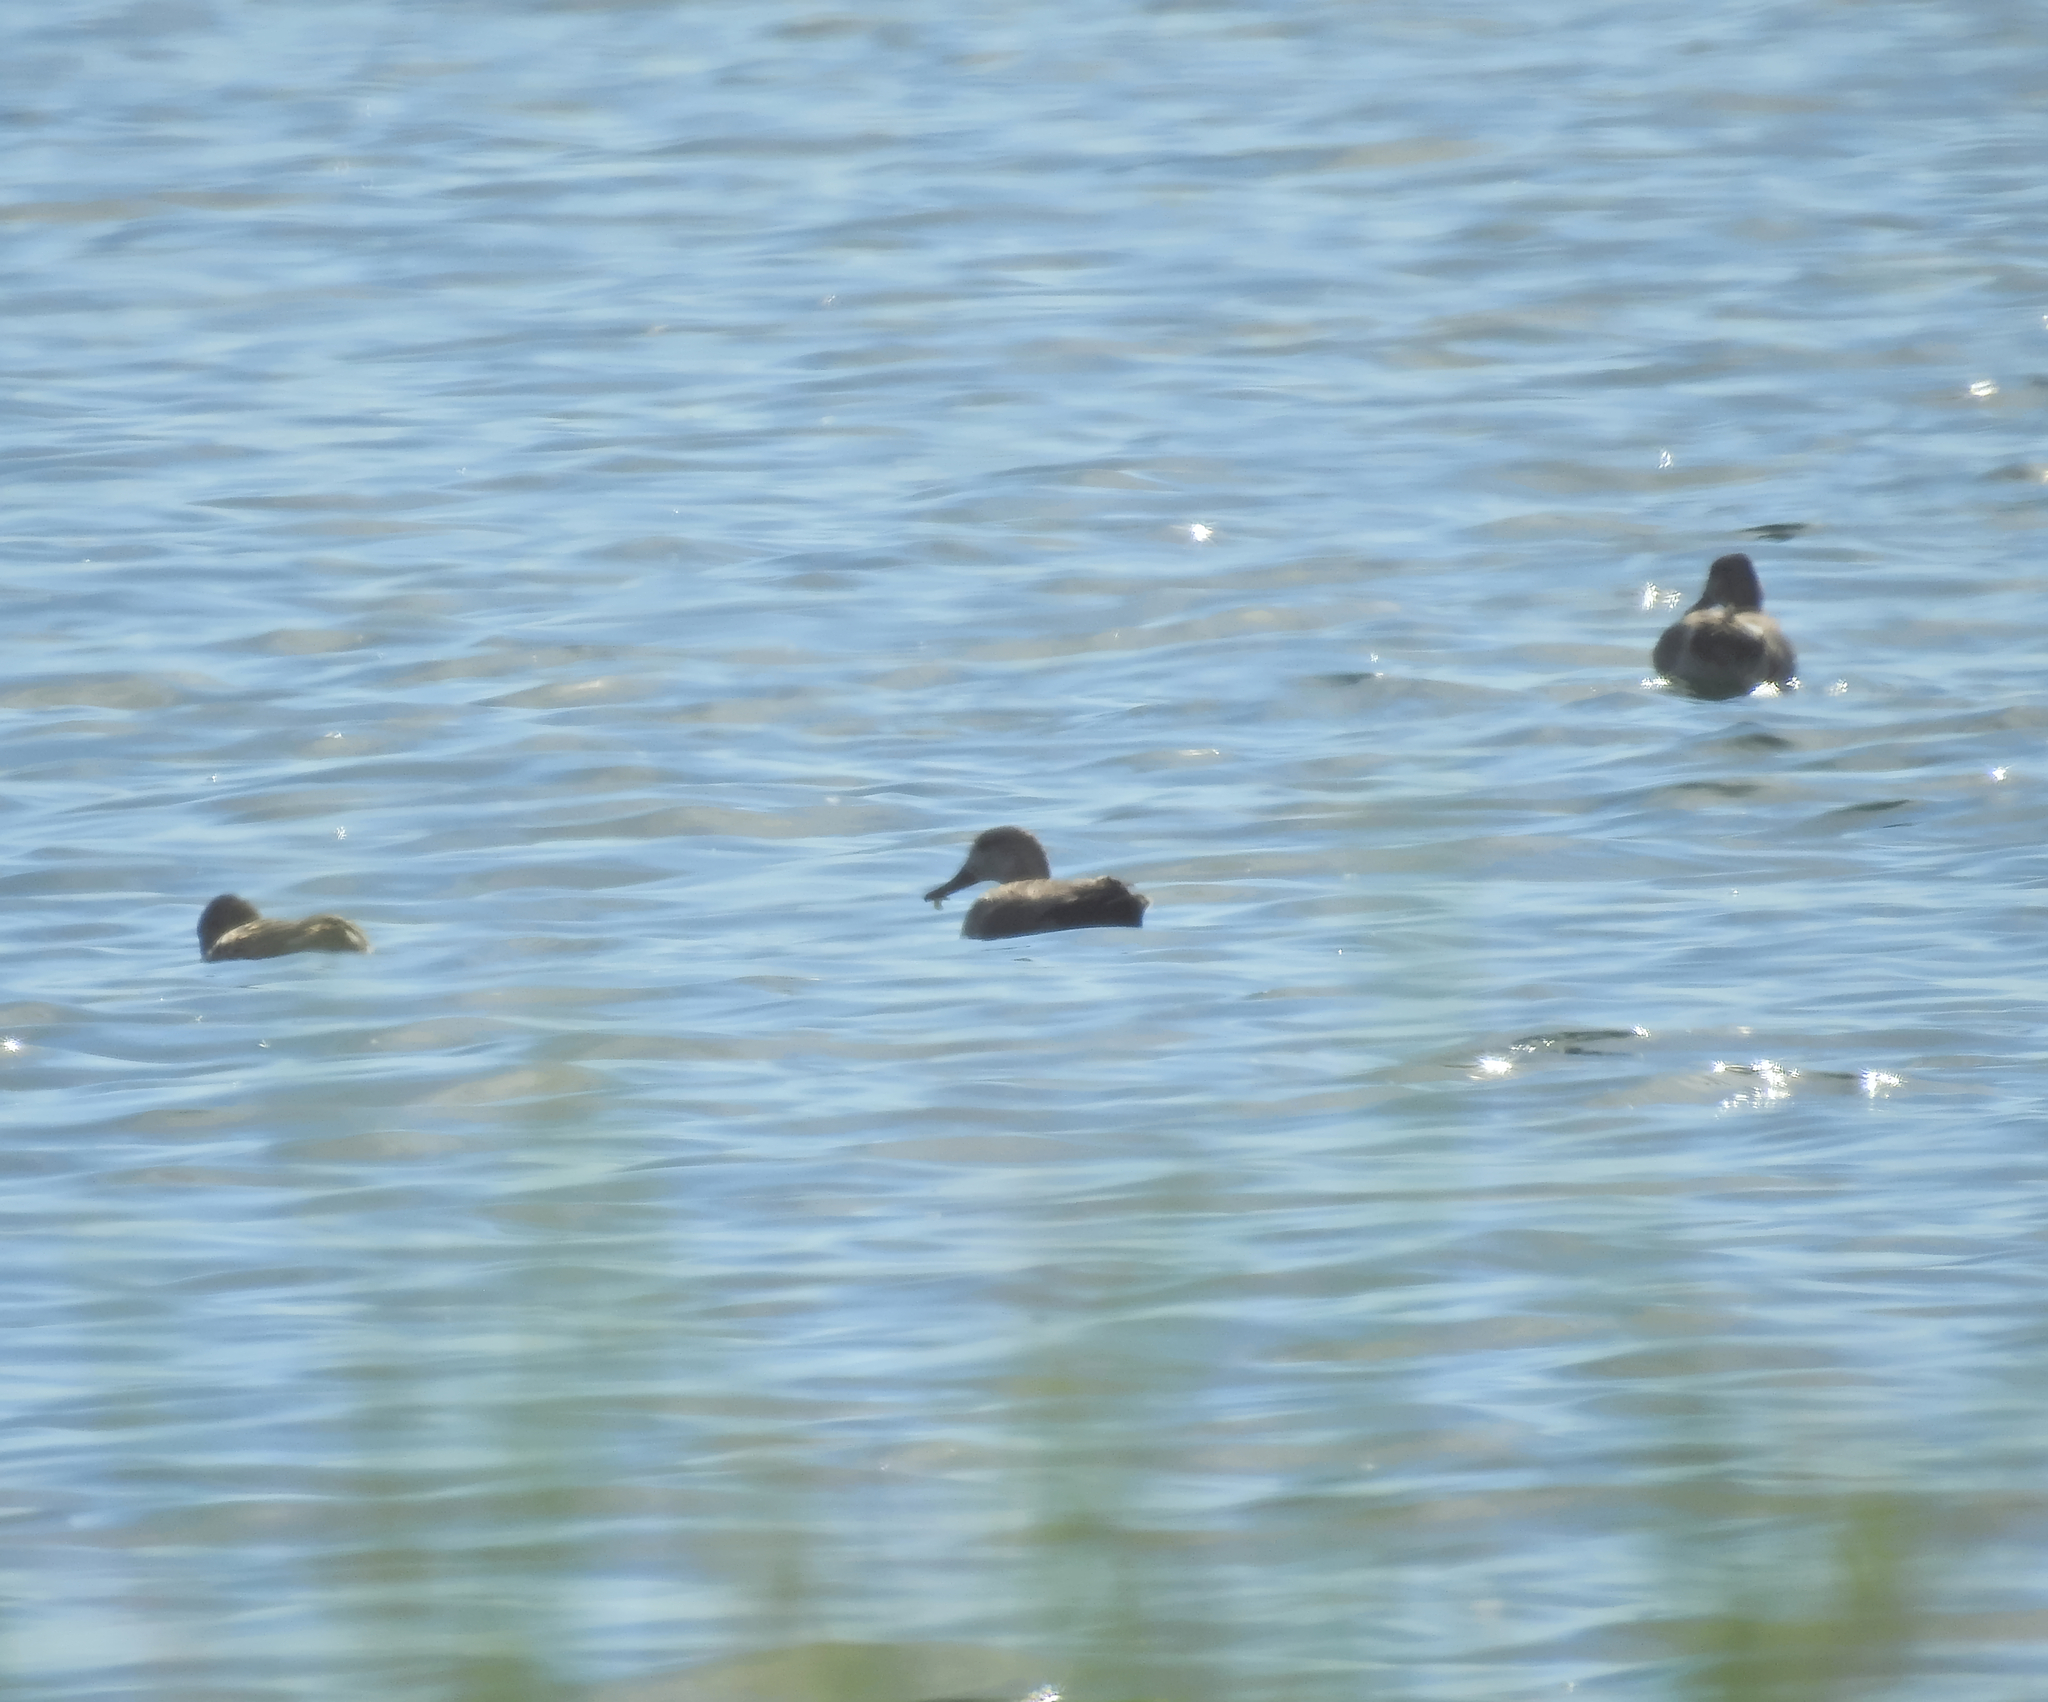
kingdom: Animalia
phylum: Chordata
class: Aves
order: Anseriformes
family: Anatidae
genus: Mareca
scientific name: Mareca strepera
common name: Gadwall
